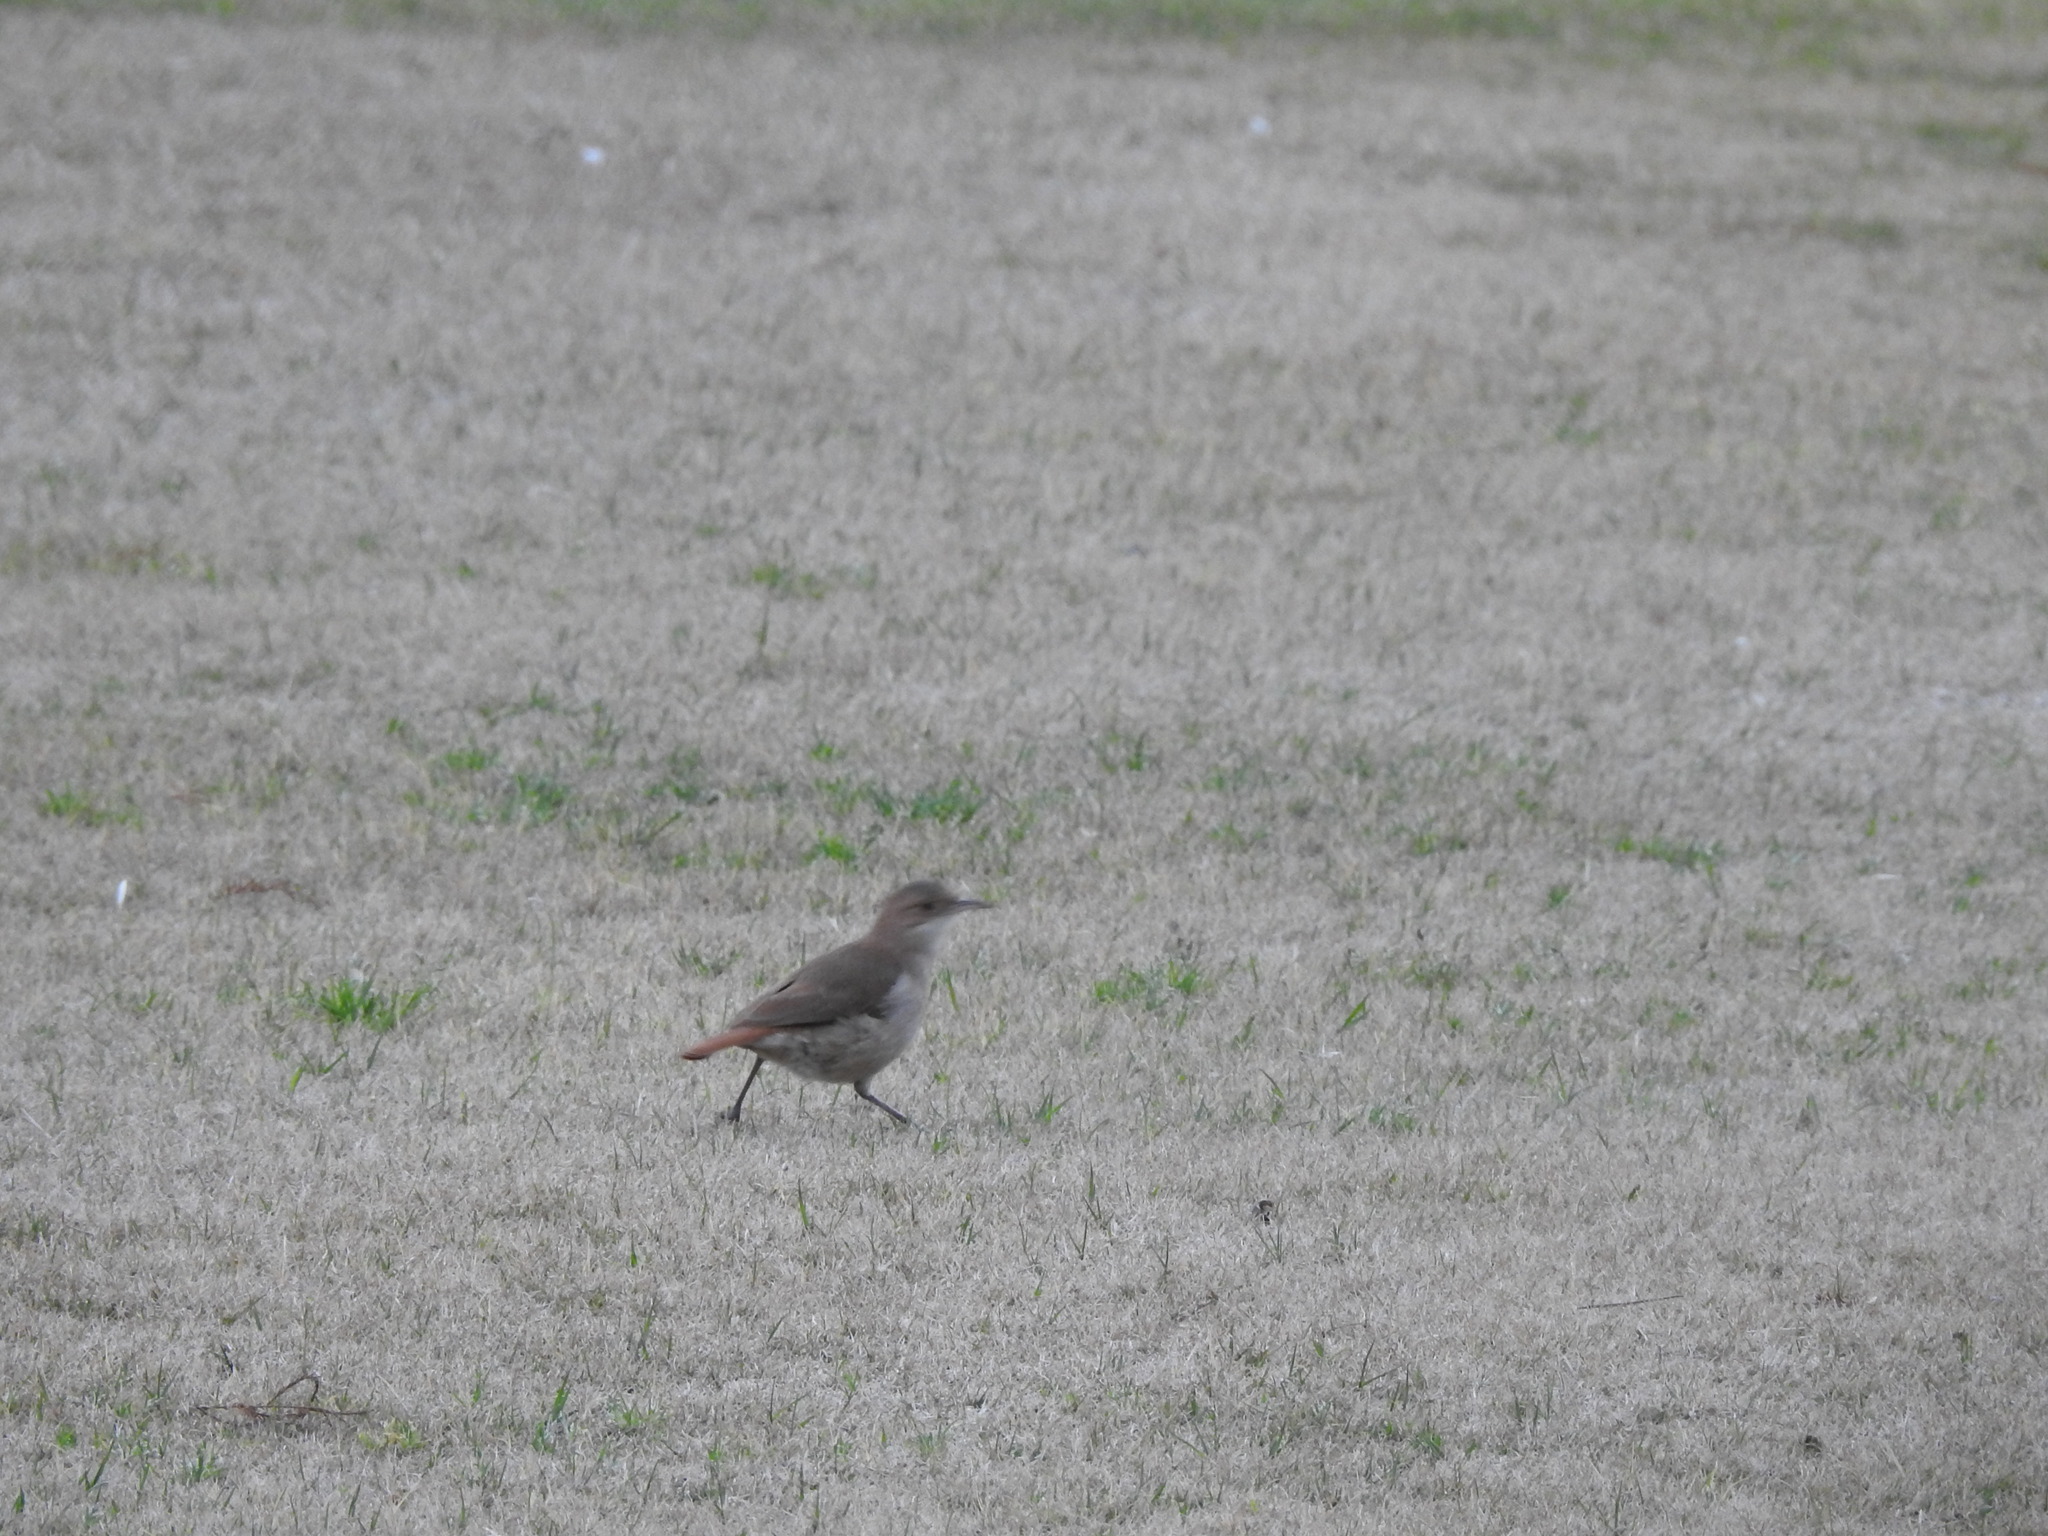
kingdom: Animalia
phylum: Chordata
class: Aves
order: Passeriformes
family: Furnariidae
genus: Furnarius
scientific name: Furnarius rufus
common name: Rufous hornero
